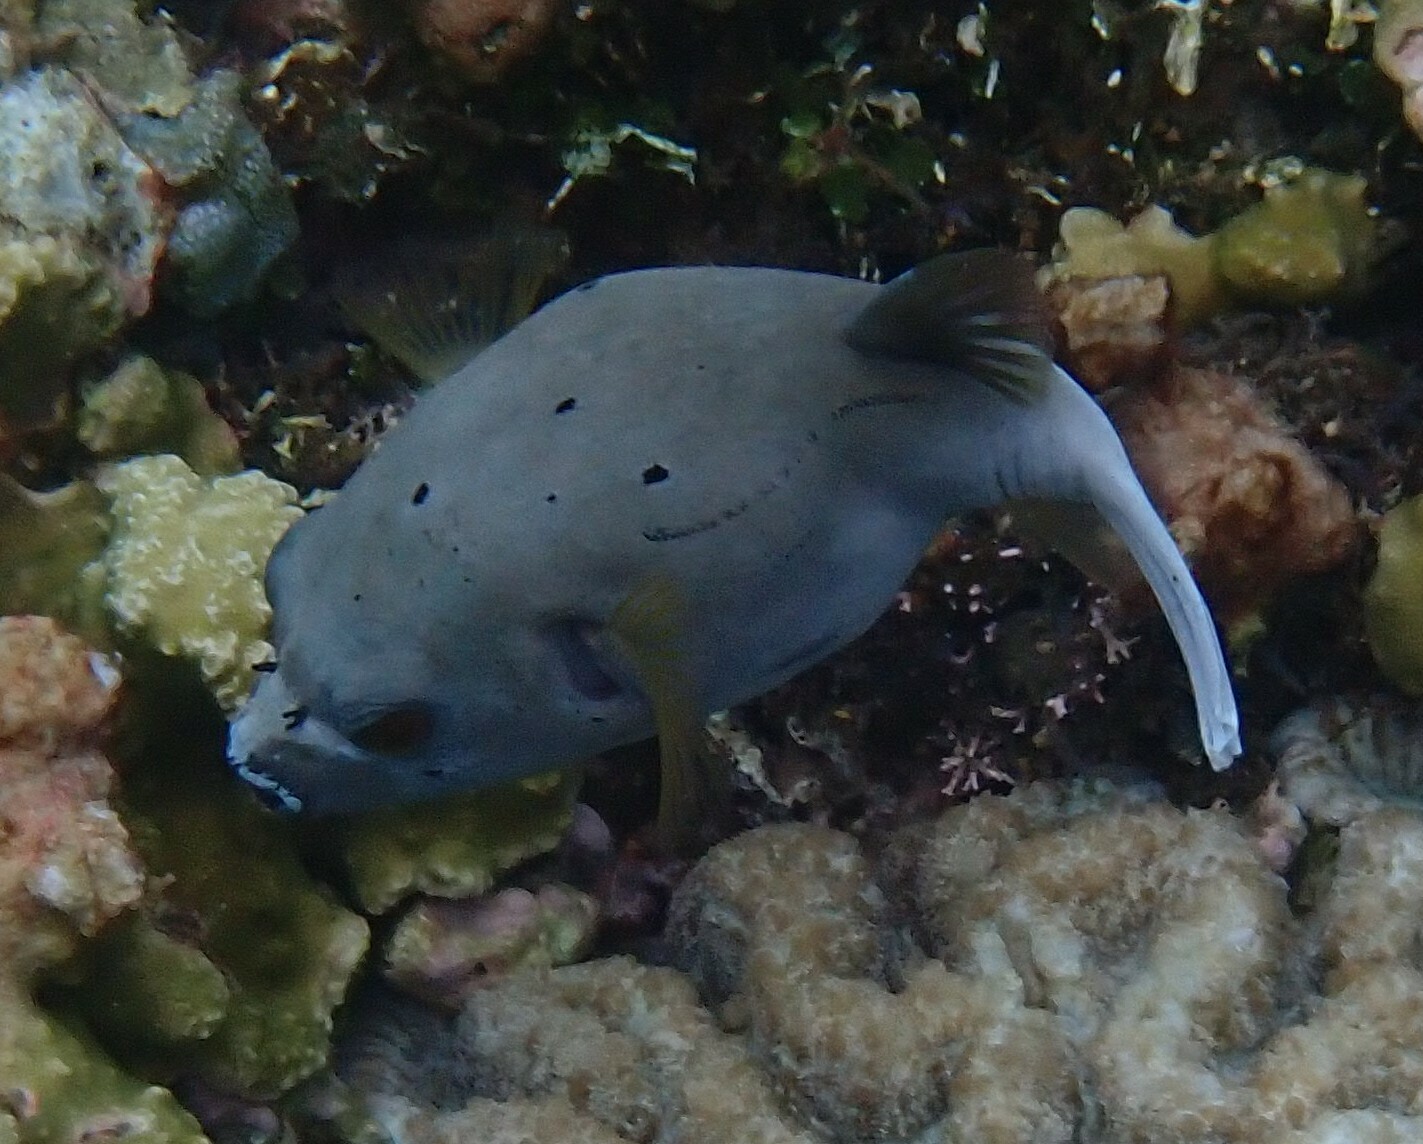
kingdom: Animalia
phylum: Chordata
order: Tetraodontiformes
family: Tetraodontidae
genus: Arothron
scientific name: Arothron nigropunctatus
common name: Black spotted blow fish
